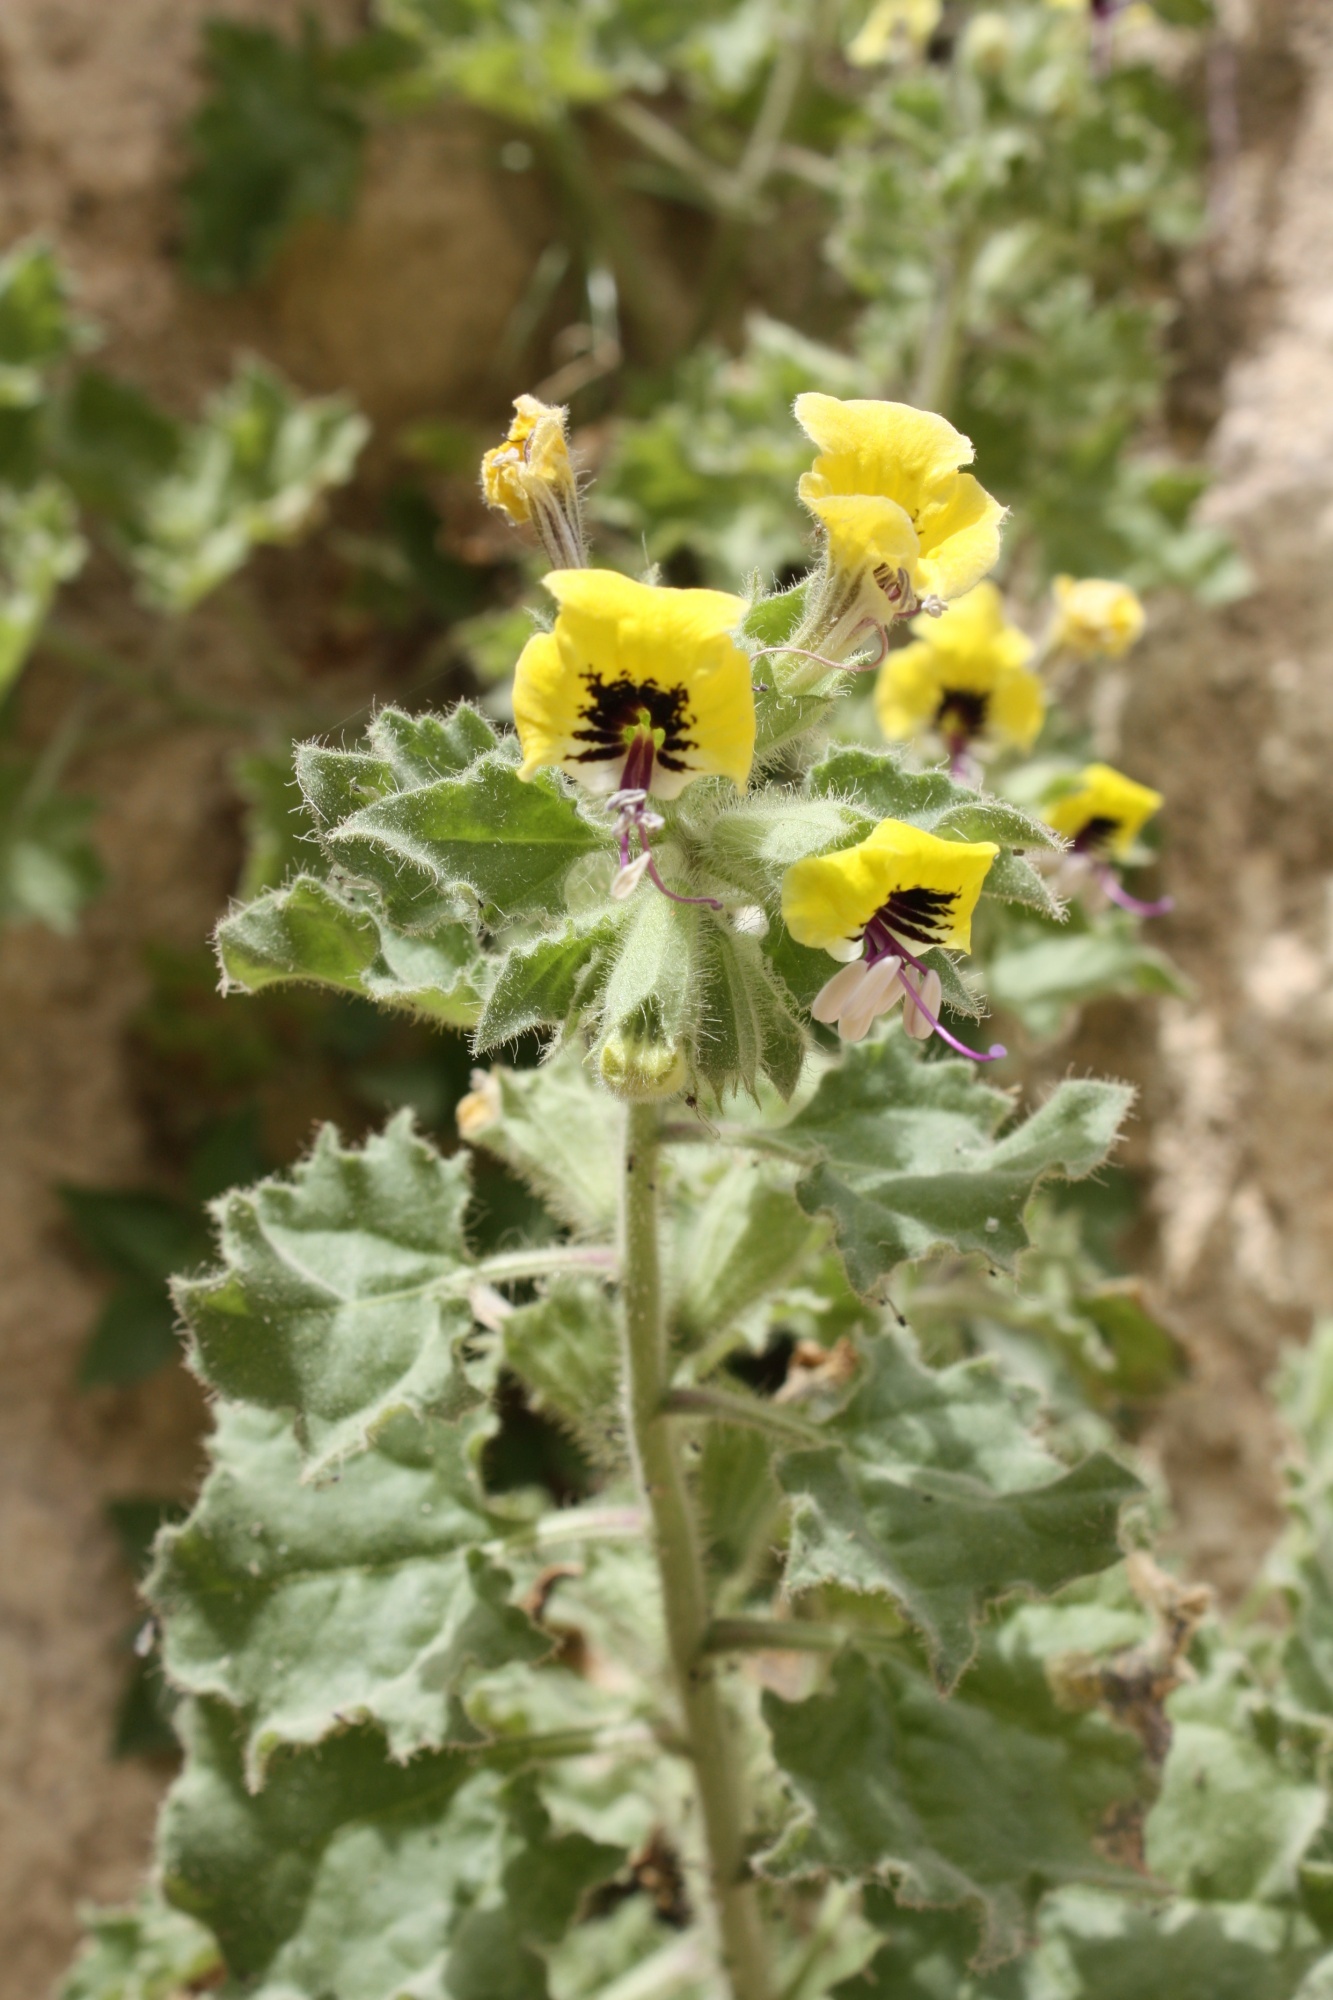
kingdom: Plantae
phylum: Tracheophyta
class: Magnoliopsida
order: Solanales
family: Solanaceae
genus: Hyoscyamus
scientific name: Hyoscyamus aureus
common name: Golden henbane
